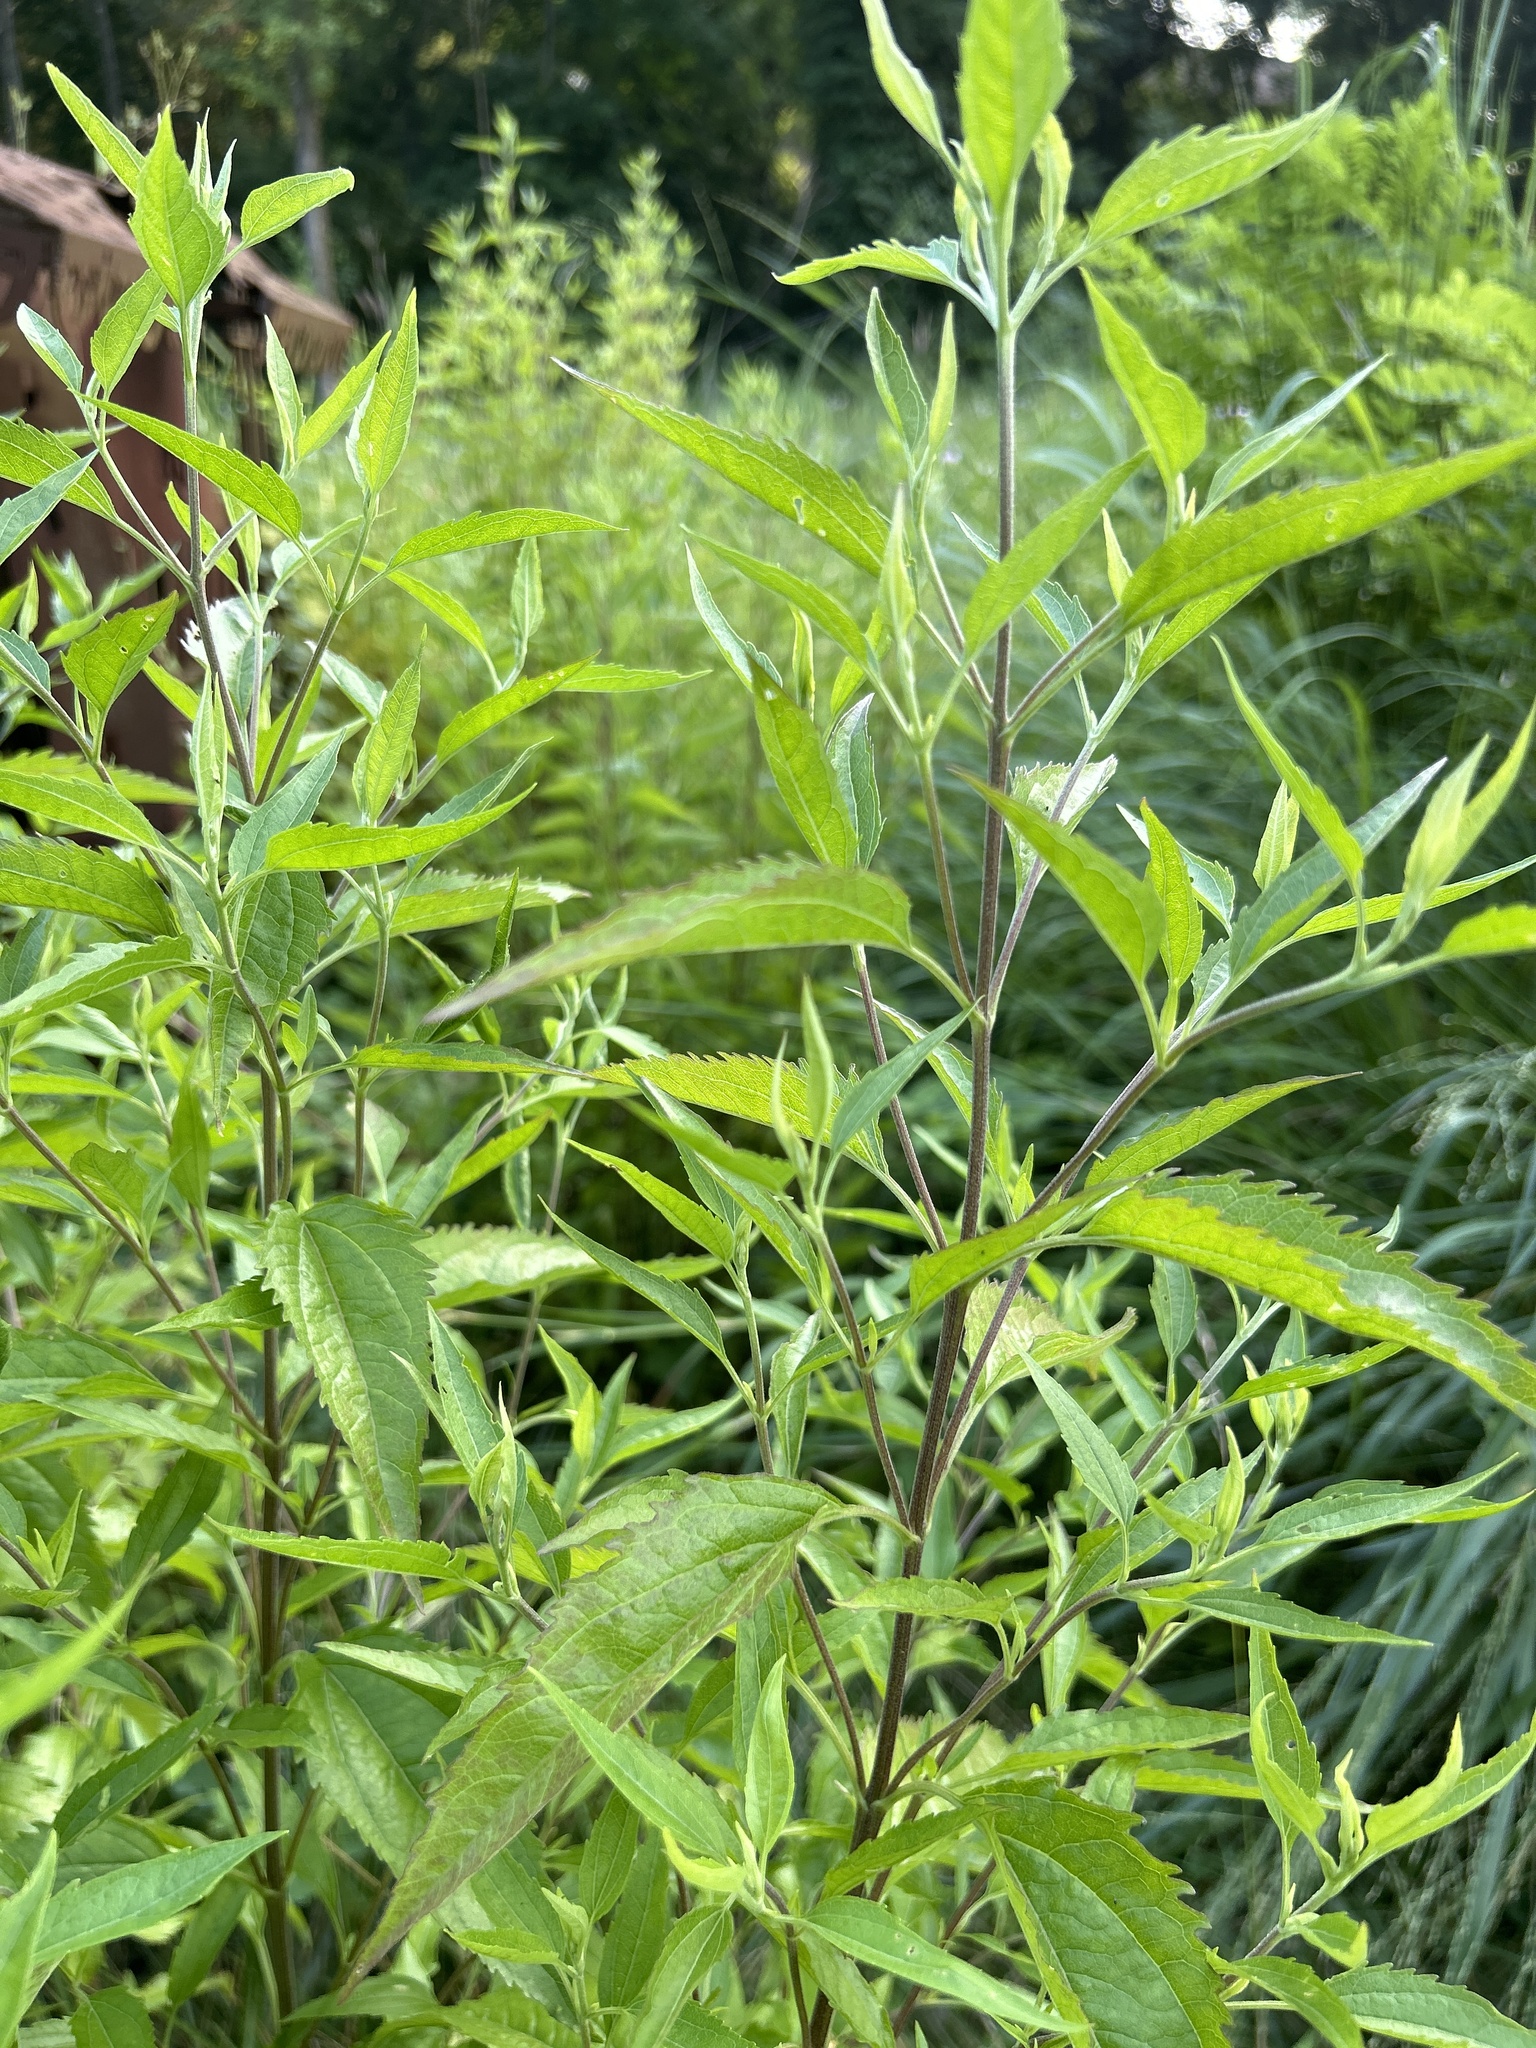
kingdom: Plantae
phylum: Tracheophyta
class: Magnoliopsida
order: Asterales
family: Asteraceae
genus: Eupatorium
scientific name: Eupatorium serotinum
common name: Late boneset
